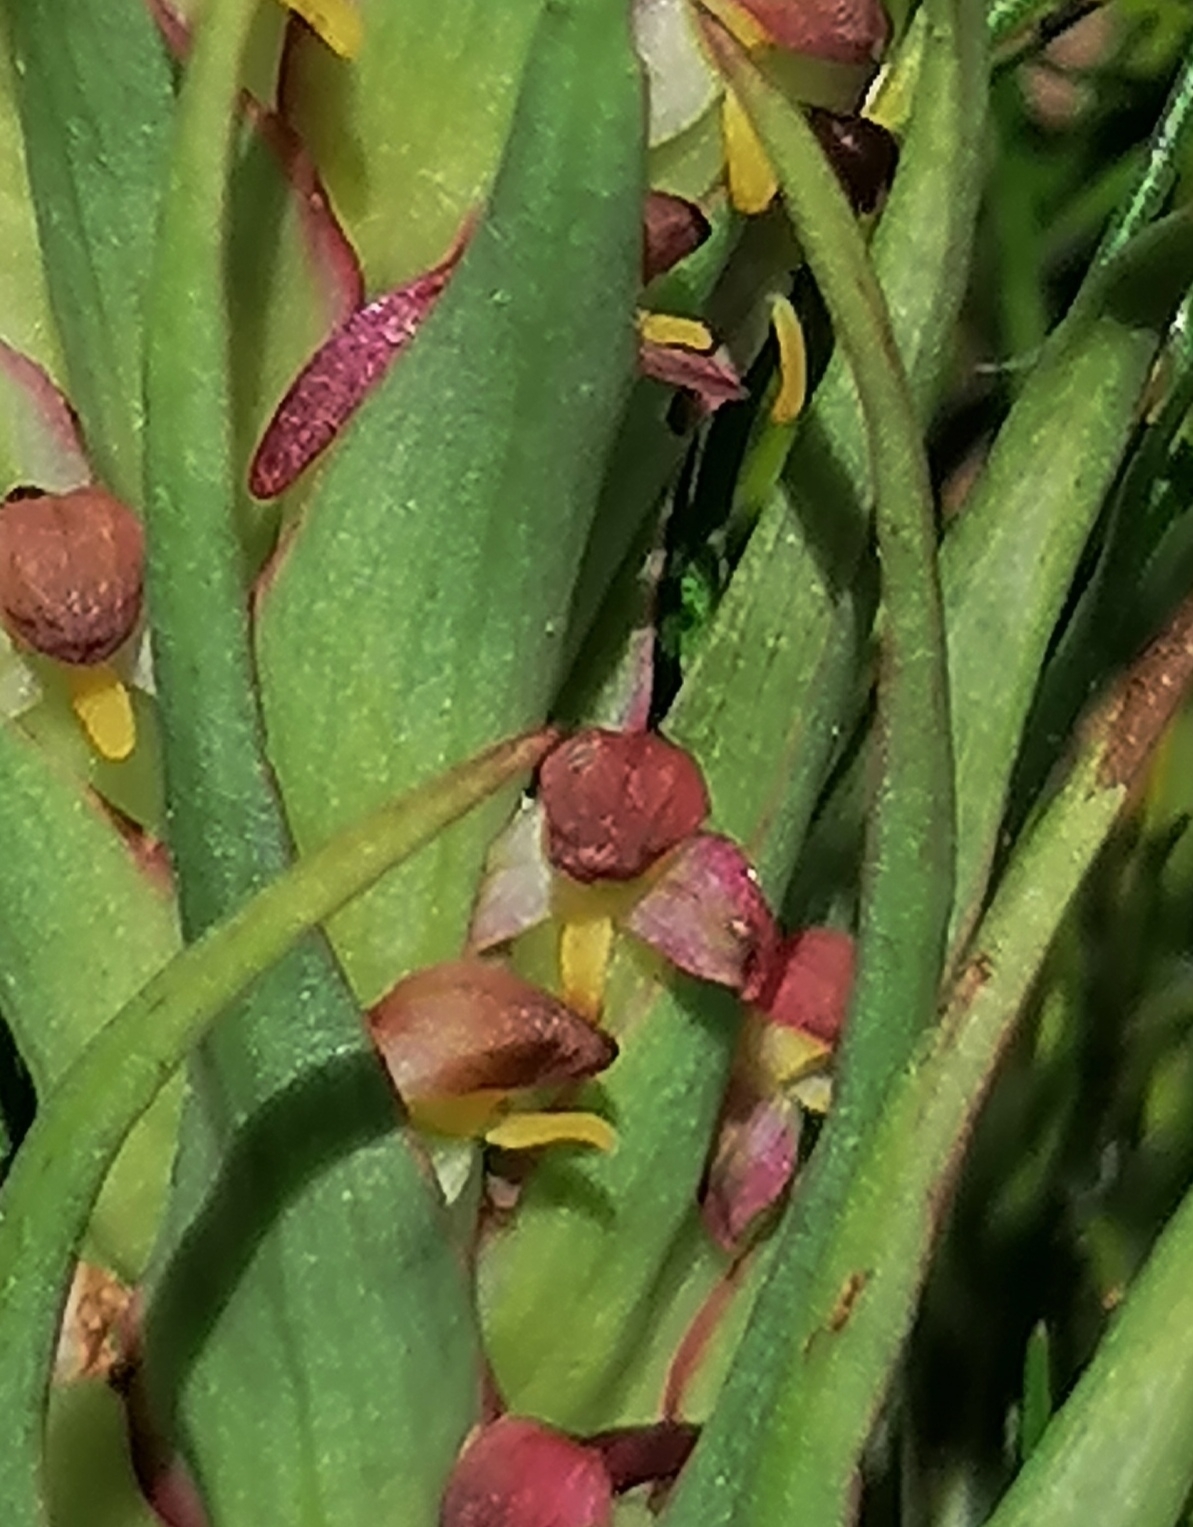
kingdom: Plantae
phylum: Tracheophyta
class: Liliopsida
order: Asparagales
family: Orchidaceae
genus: Disa
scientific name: Disa bracteata
